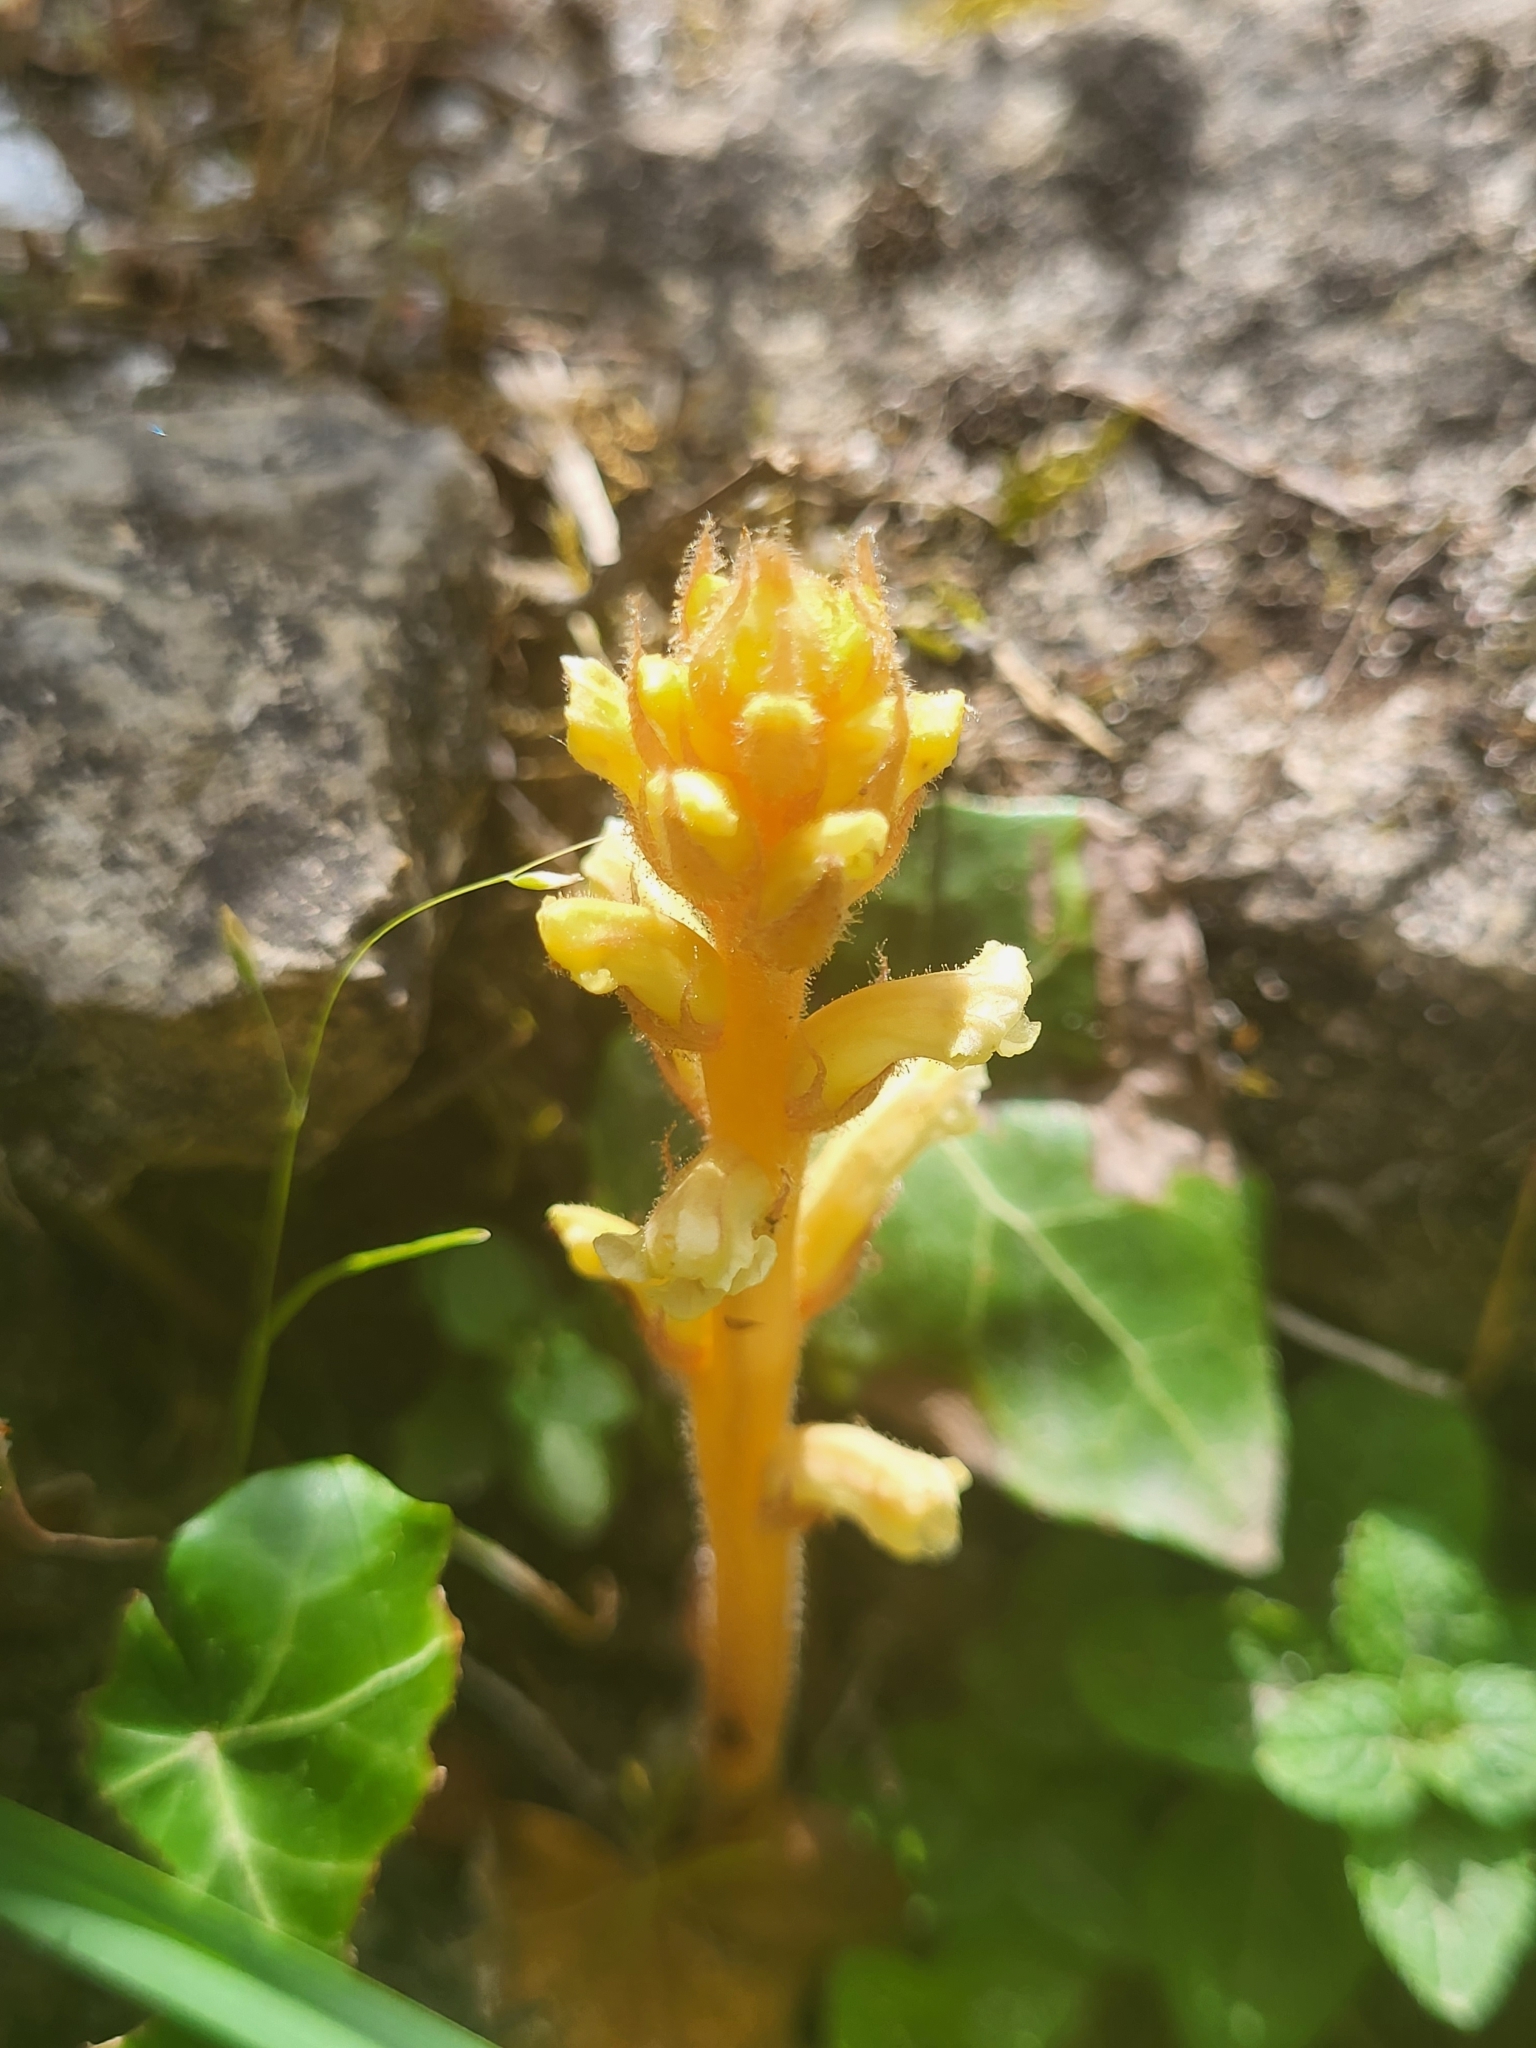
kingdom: Plantae
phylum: Tracheophyta
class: Magnoliopsida
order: Lamiales
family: Orobanchaceae
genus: Orobanche
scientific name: Orobanche hederae
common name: Ivy broomrape
